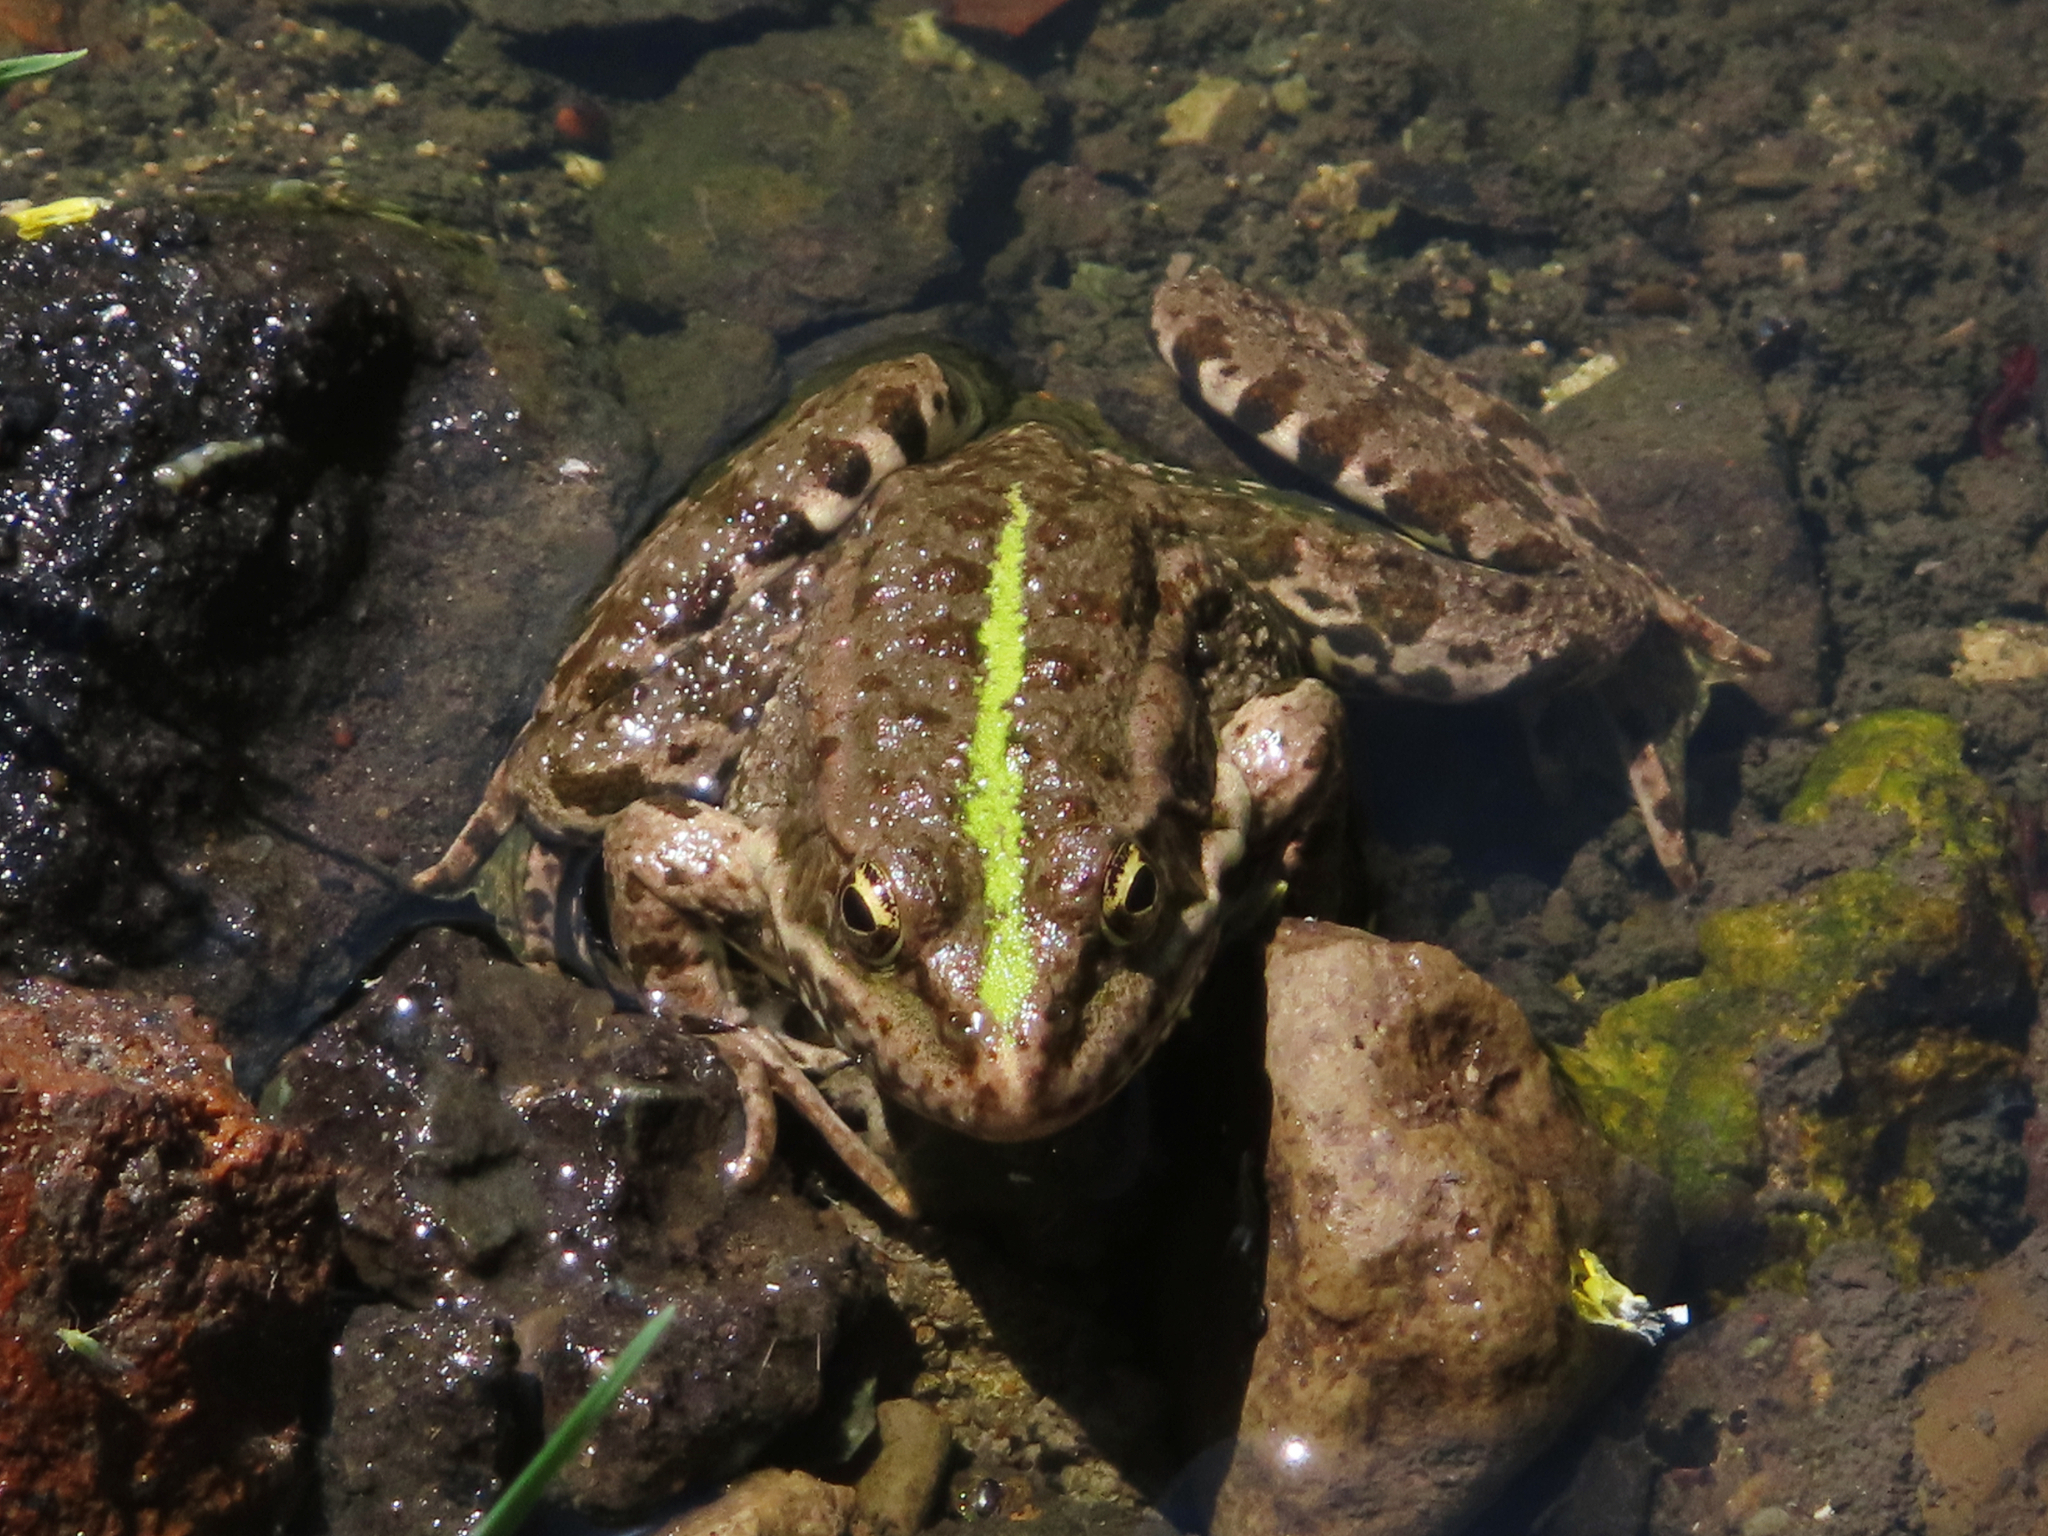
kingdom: Animalia
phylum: Chordata
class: Amphibia
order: Anura
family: Ranidae
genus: Pelophylax
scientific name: Pelophylax ridibundus
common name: Marsh frog
